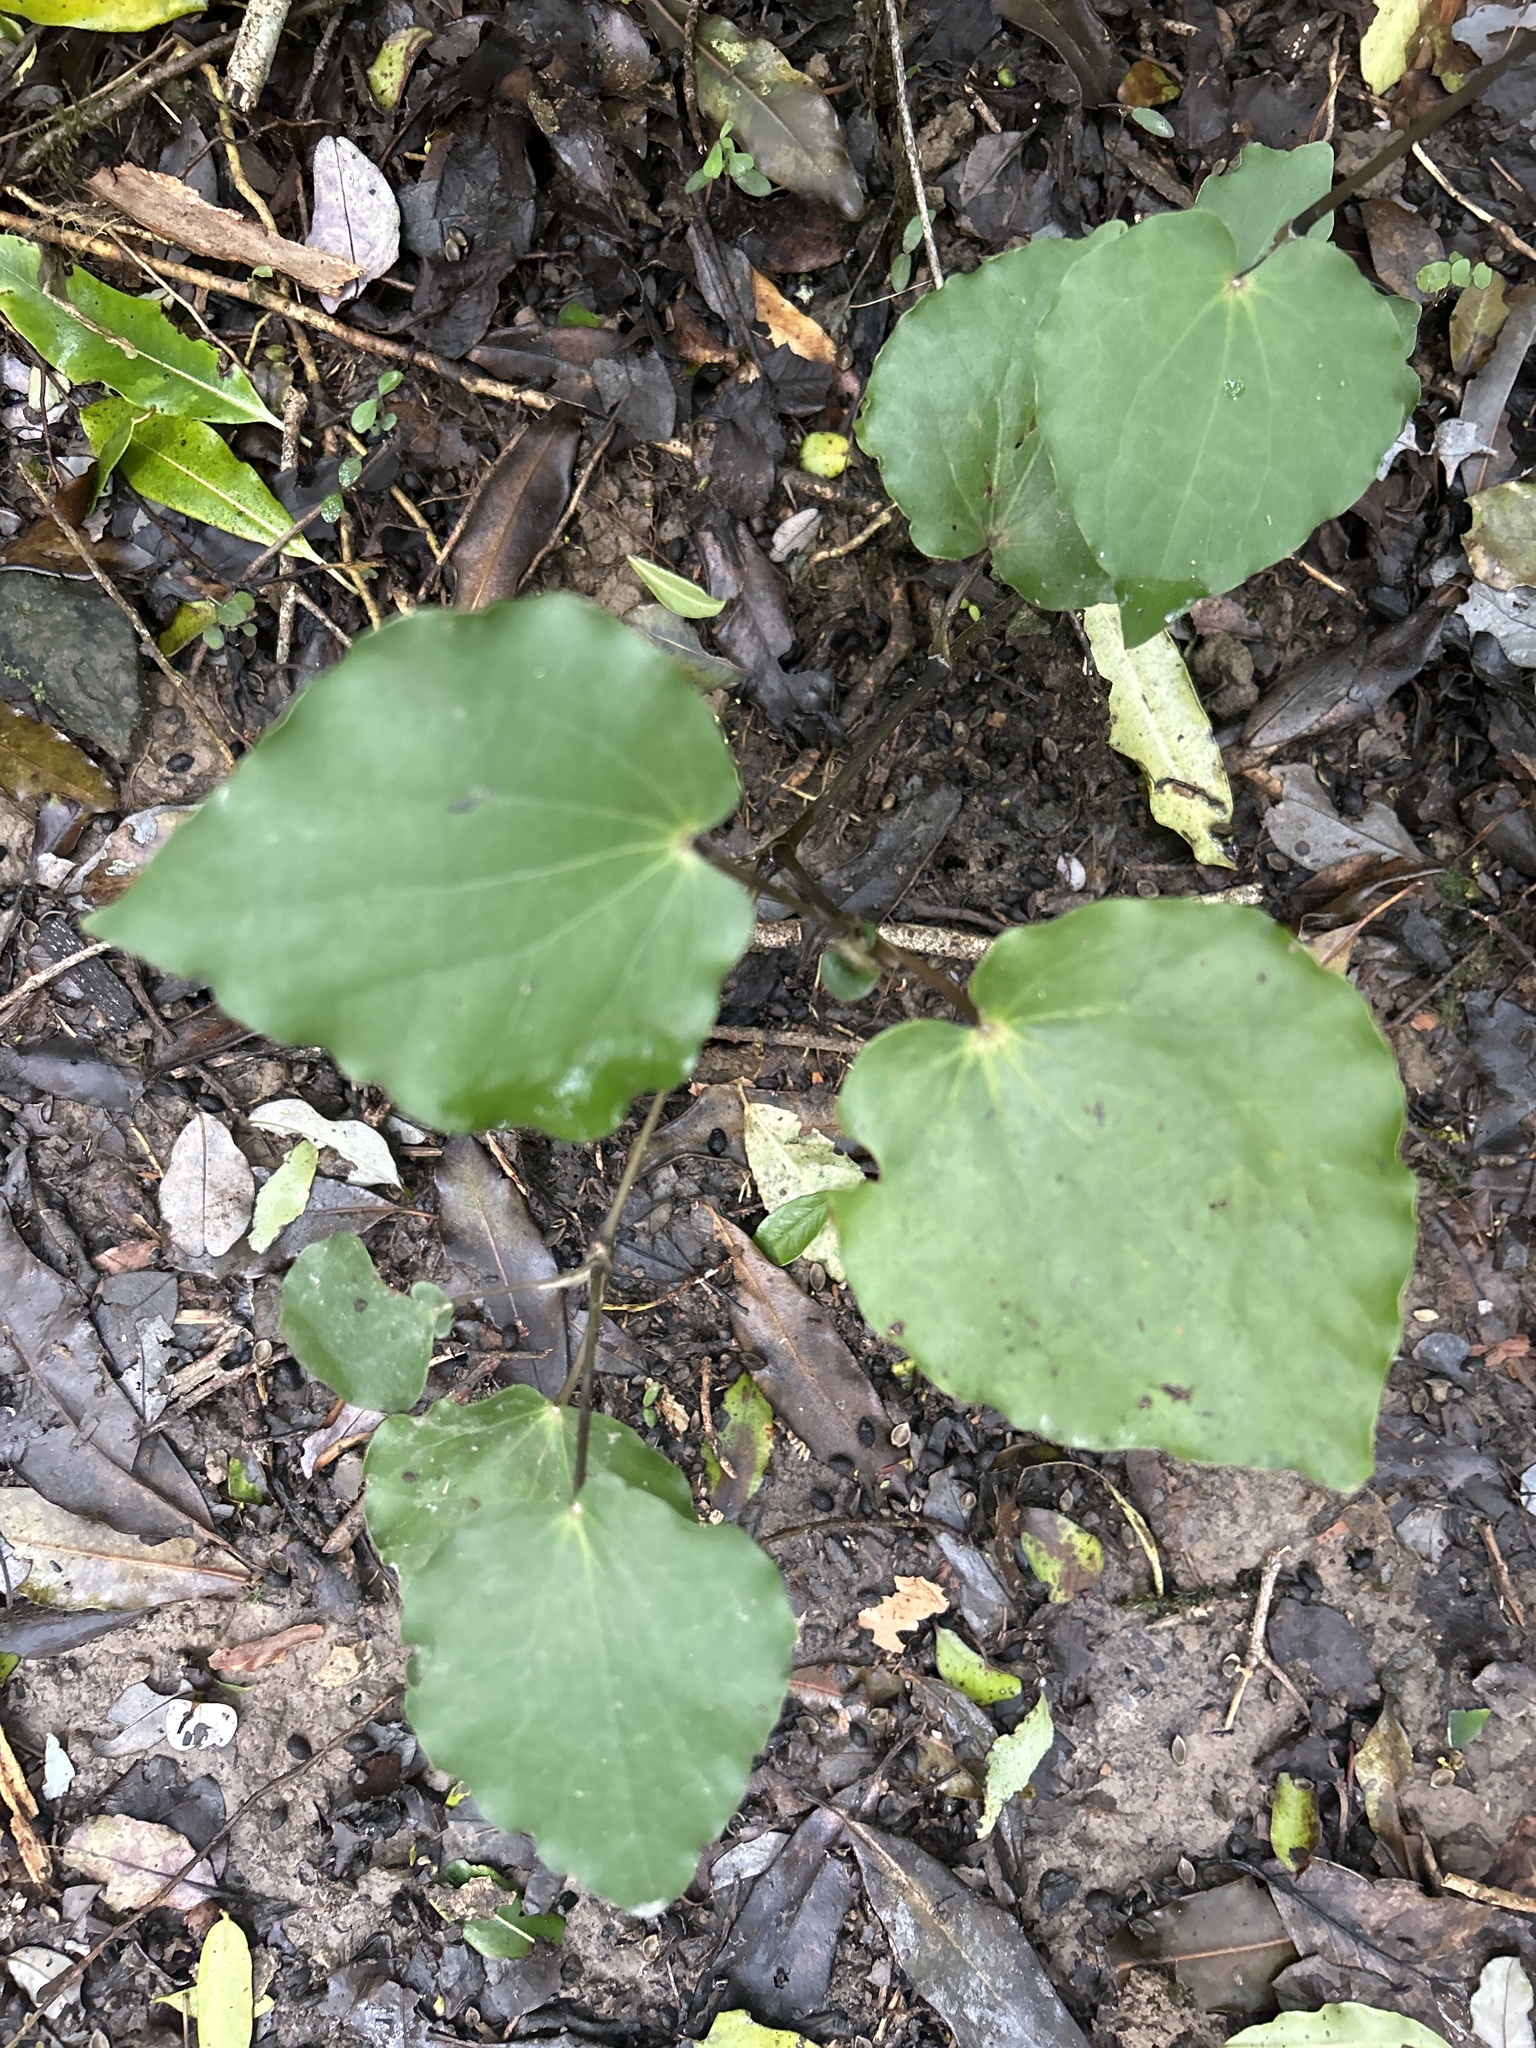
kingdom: Plantae
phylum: Tracheophyta
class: Magnoliopsida
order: Piperales
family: Piperaceae
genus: Macropiper
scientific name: Macropiper excelsum
